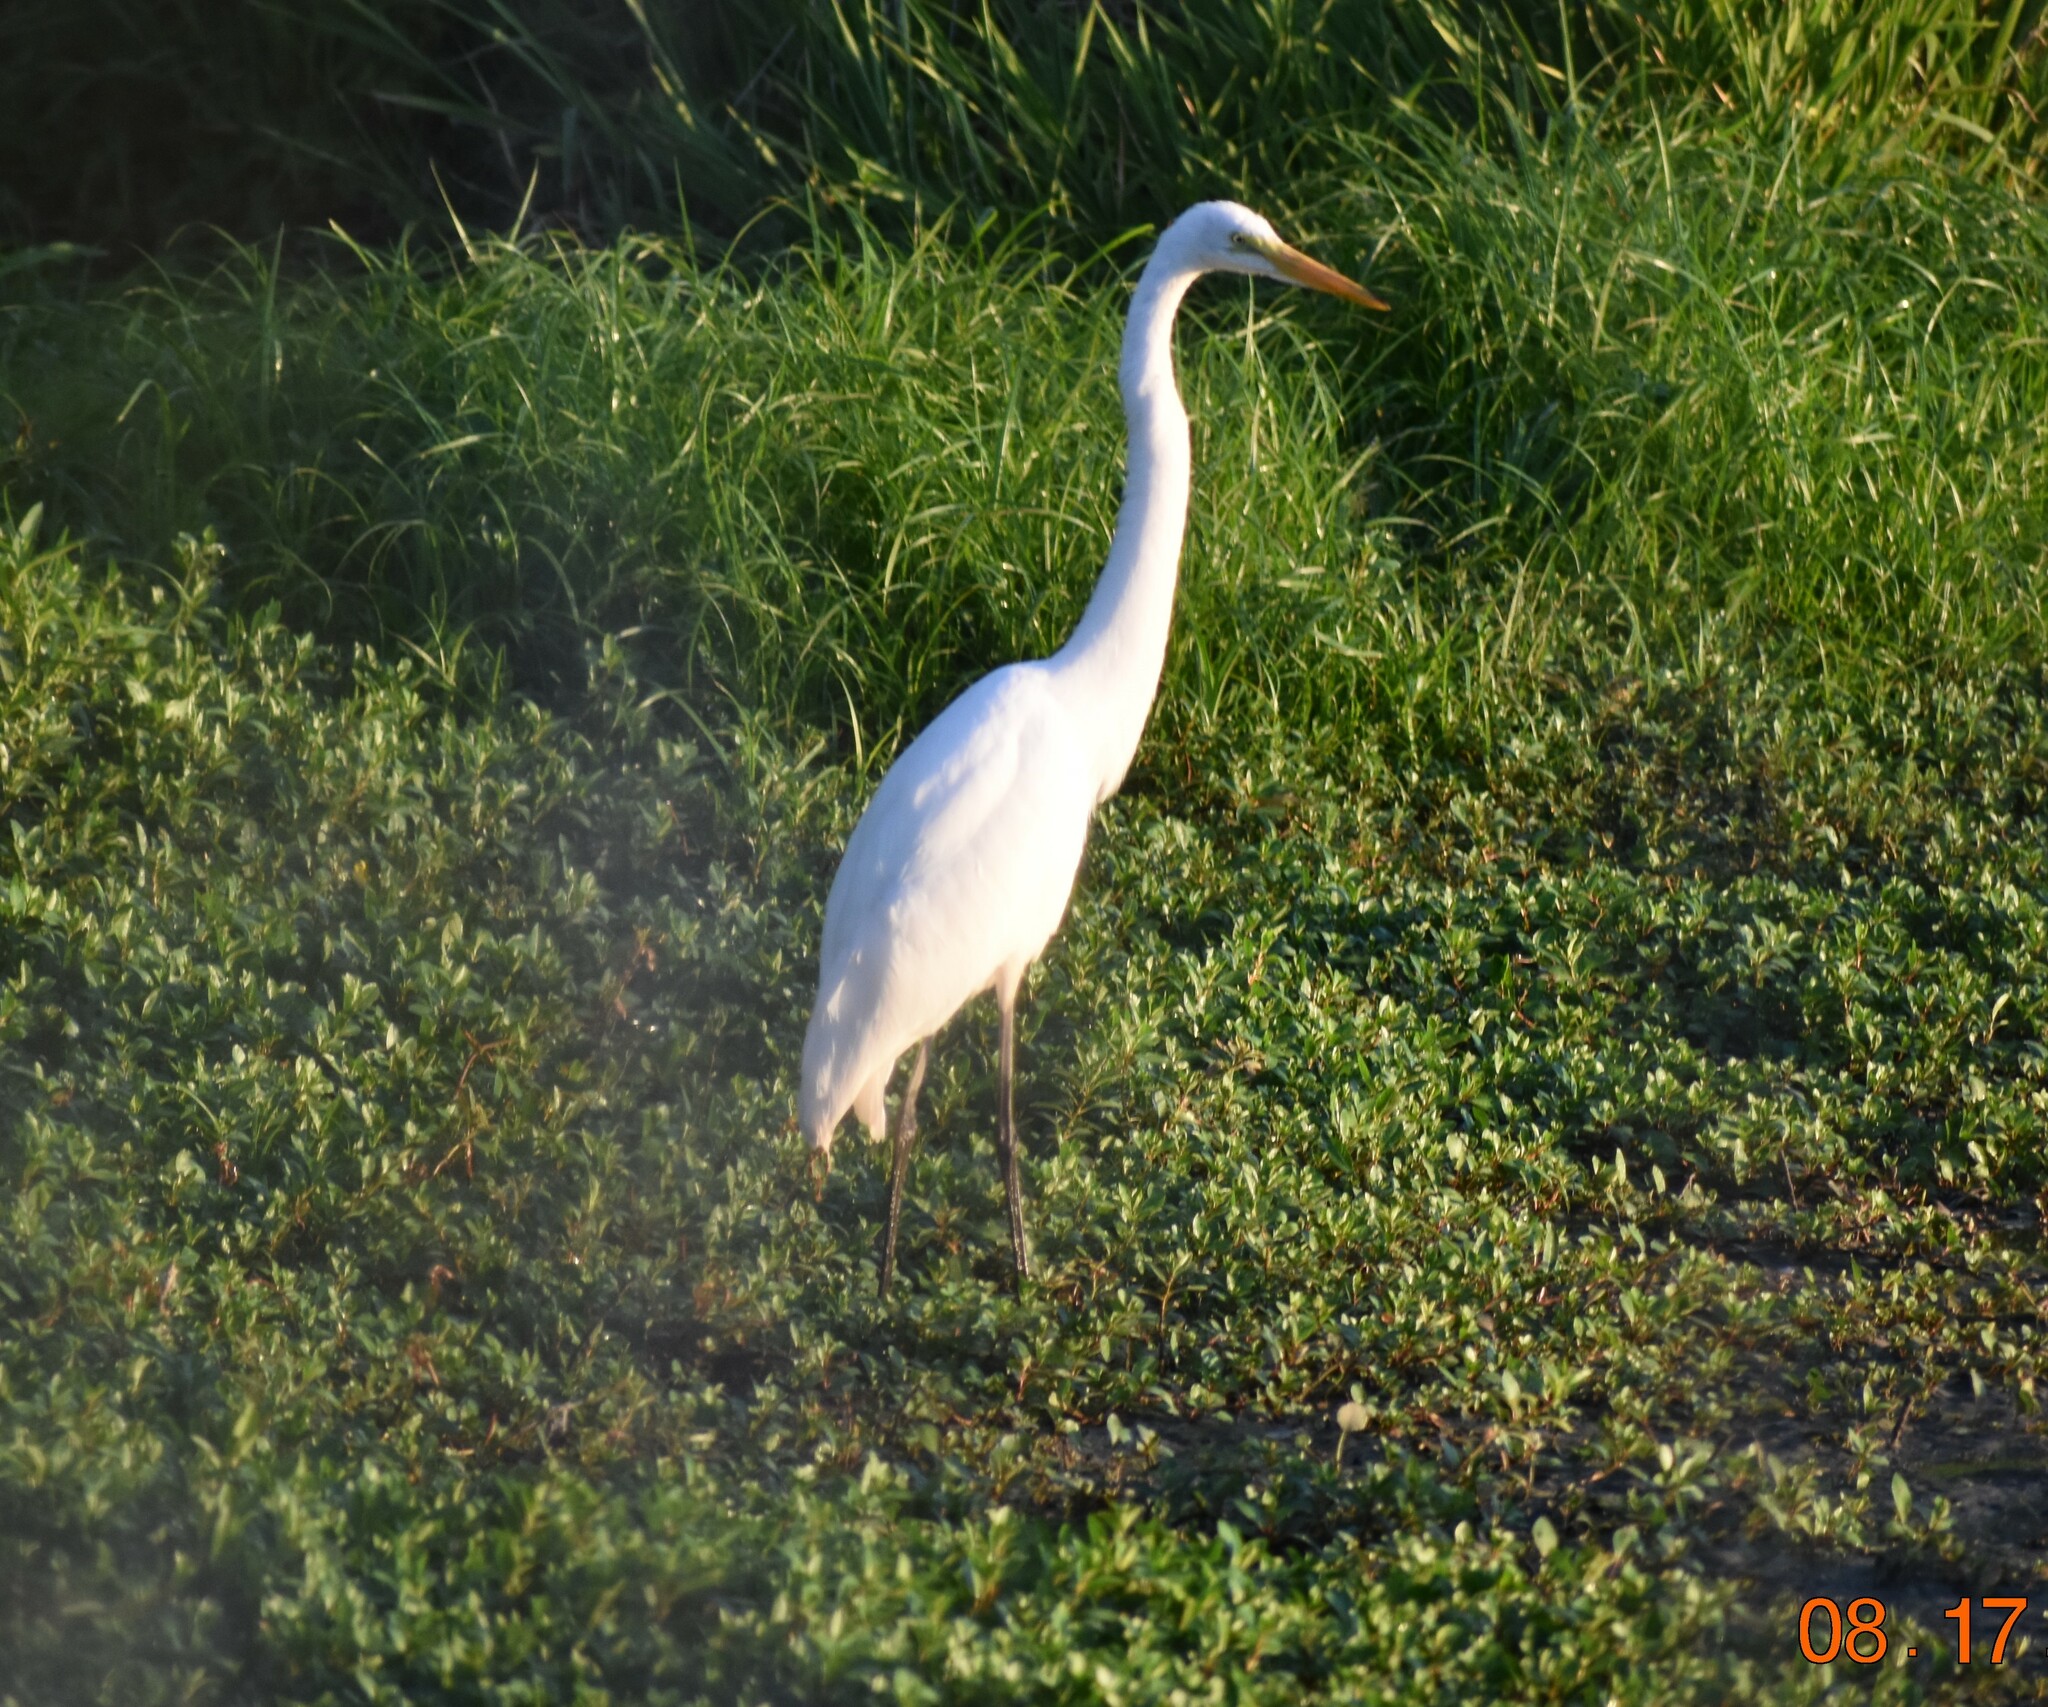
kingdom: Animalia
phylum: Chordata
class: Aves
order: Pelecaniformes
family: Ardeidae
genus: Ardea
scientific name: Ardea alba
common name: Great egret
